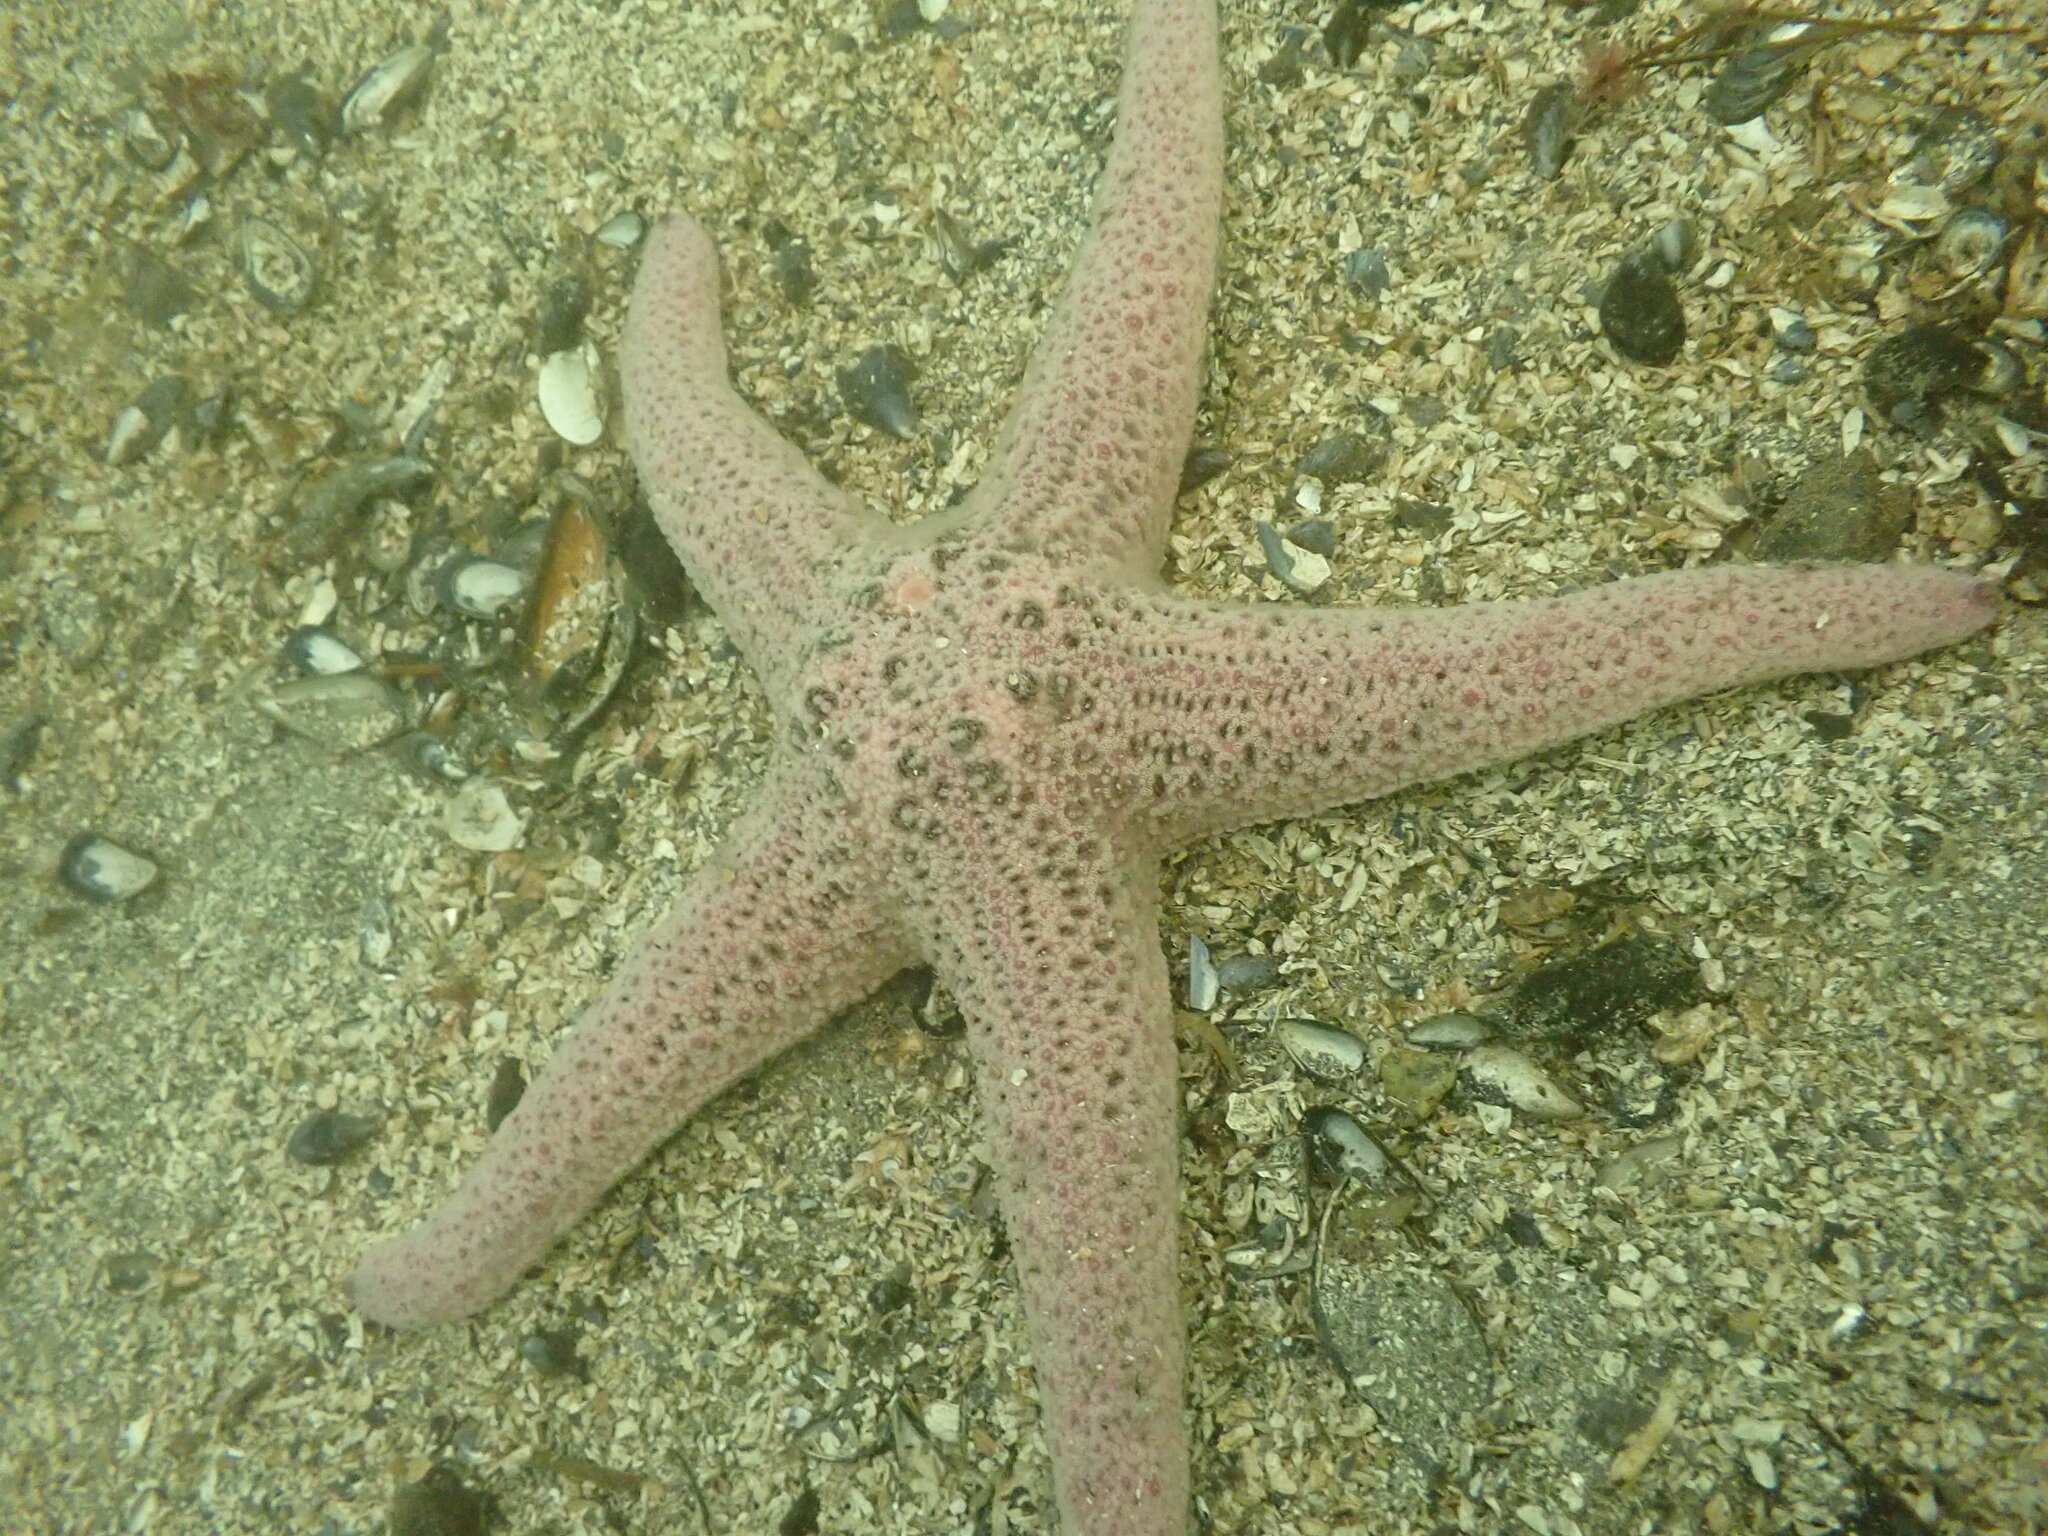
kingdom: Animalia
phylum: Echinodermata
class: Asteroidea
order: Forcipulatida
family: Asteriidae
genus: Pisaster
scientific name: Pisaster brevispinus
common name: Pink stars
